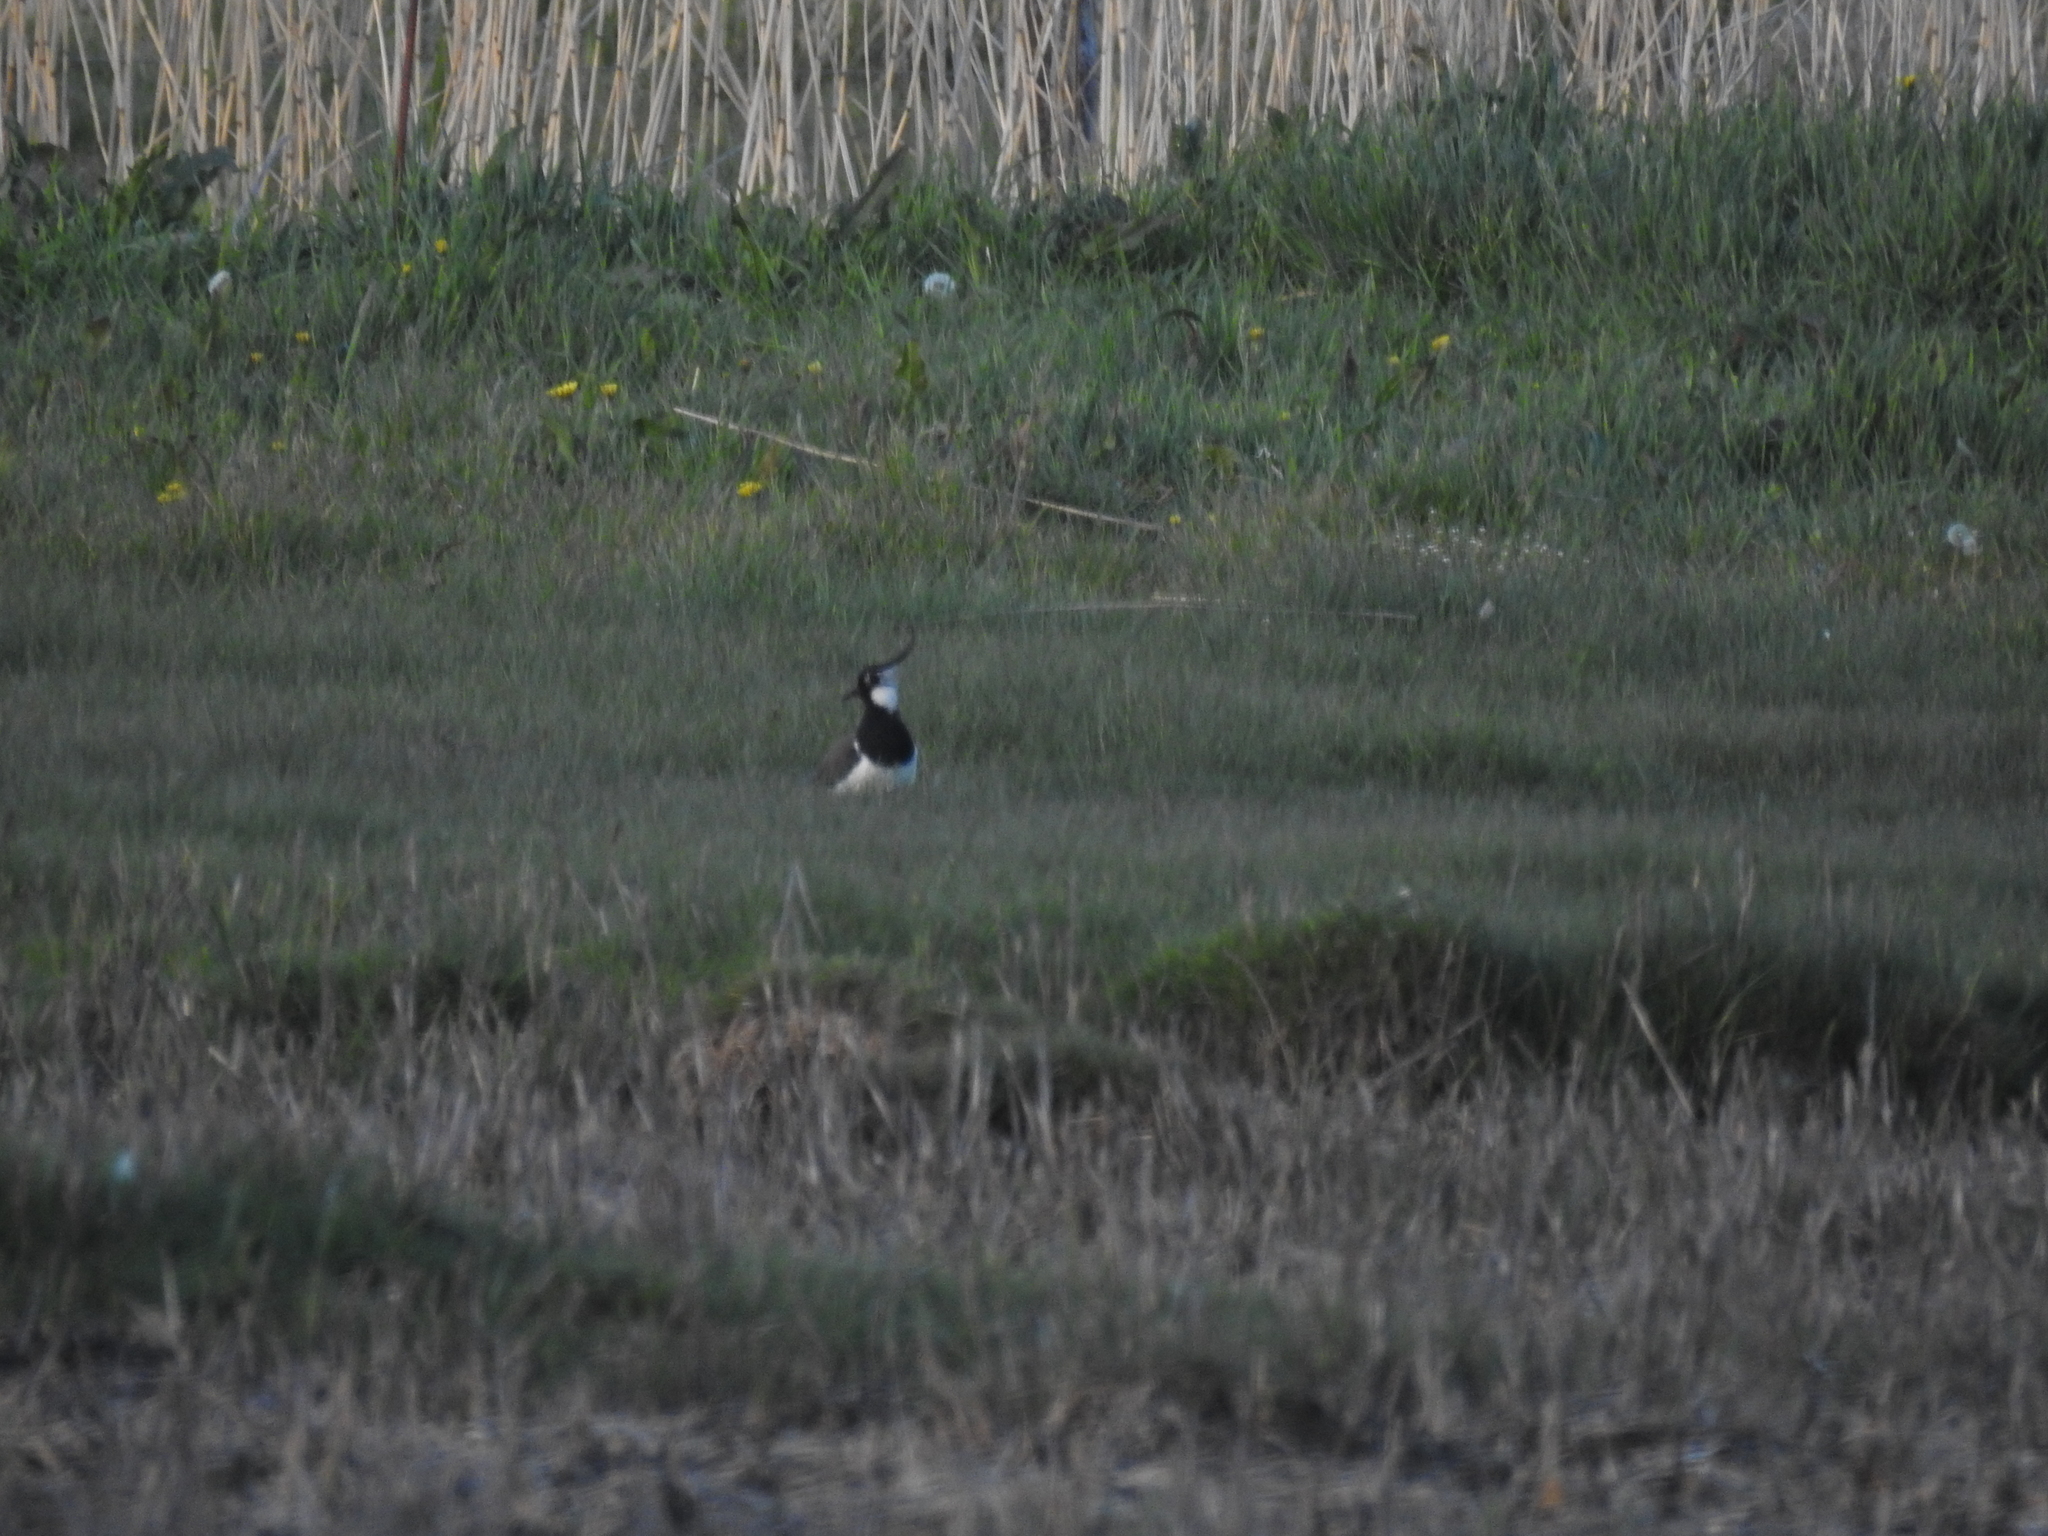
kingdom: Animalia
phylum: Chordata
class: Aves
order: Charadriiformes
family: Charadriidae
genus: Vanellus
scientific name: Vanellus vanellus
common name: Northern lapwing
